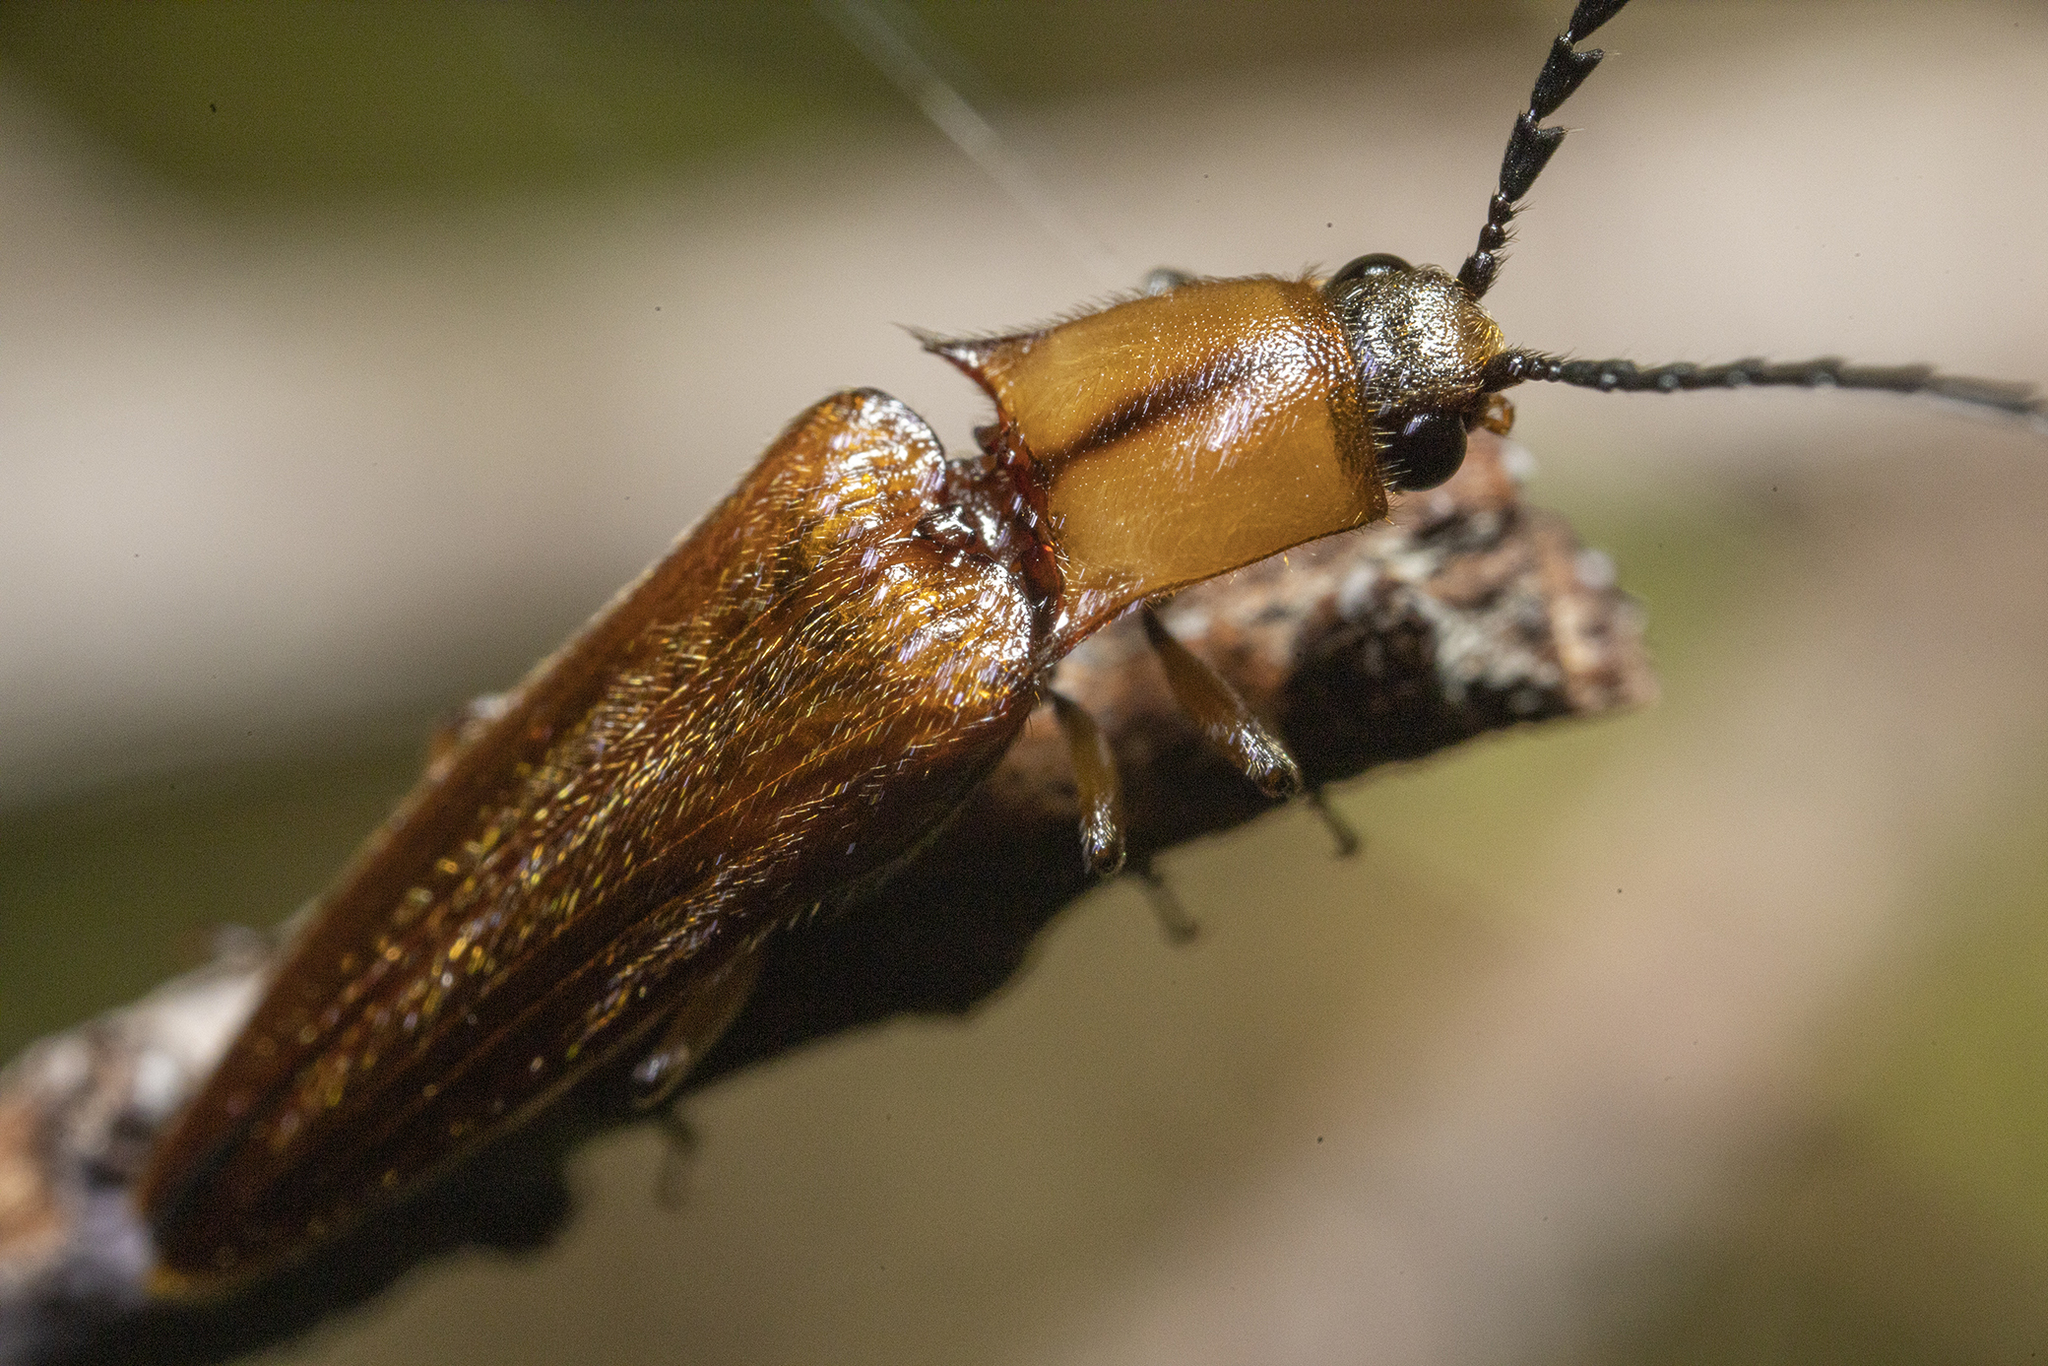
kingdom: Animalia
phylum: Arthropoda
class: Insecta
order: Coleoptera
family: Elateridae
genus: Sphaenelater
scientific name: Sphaenelater
